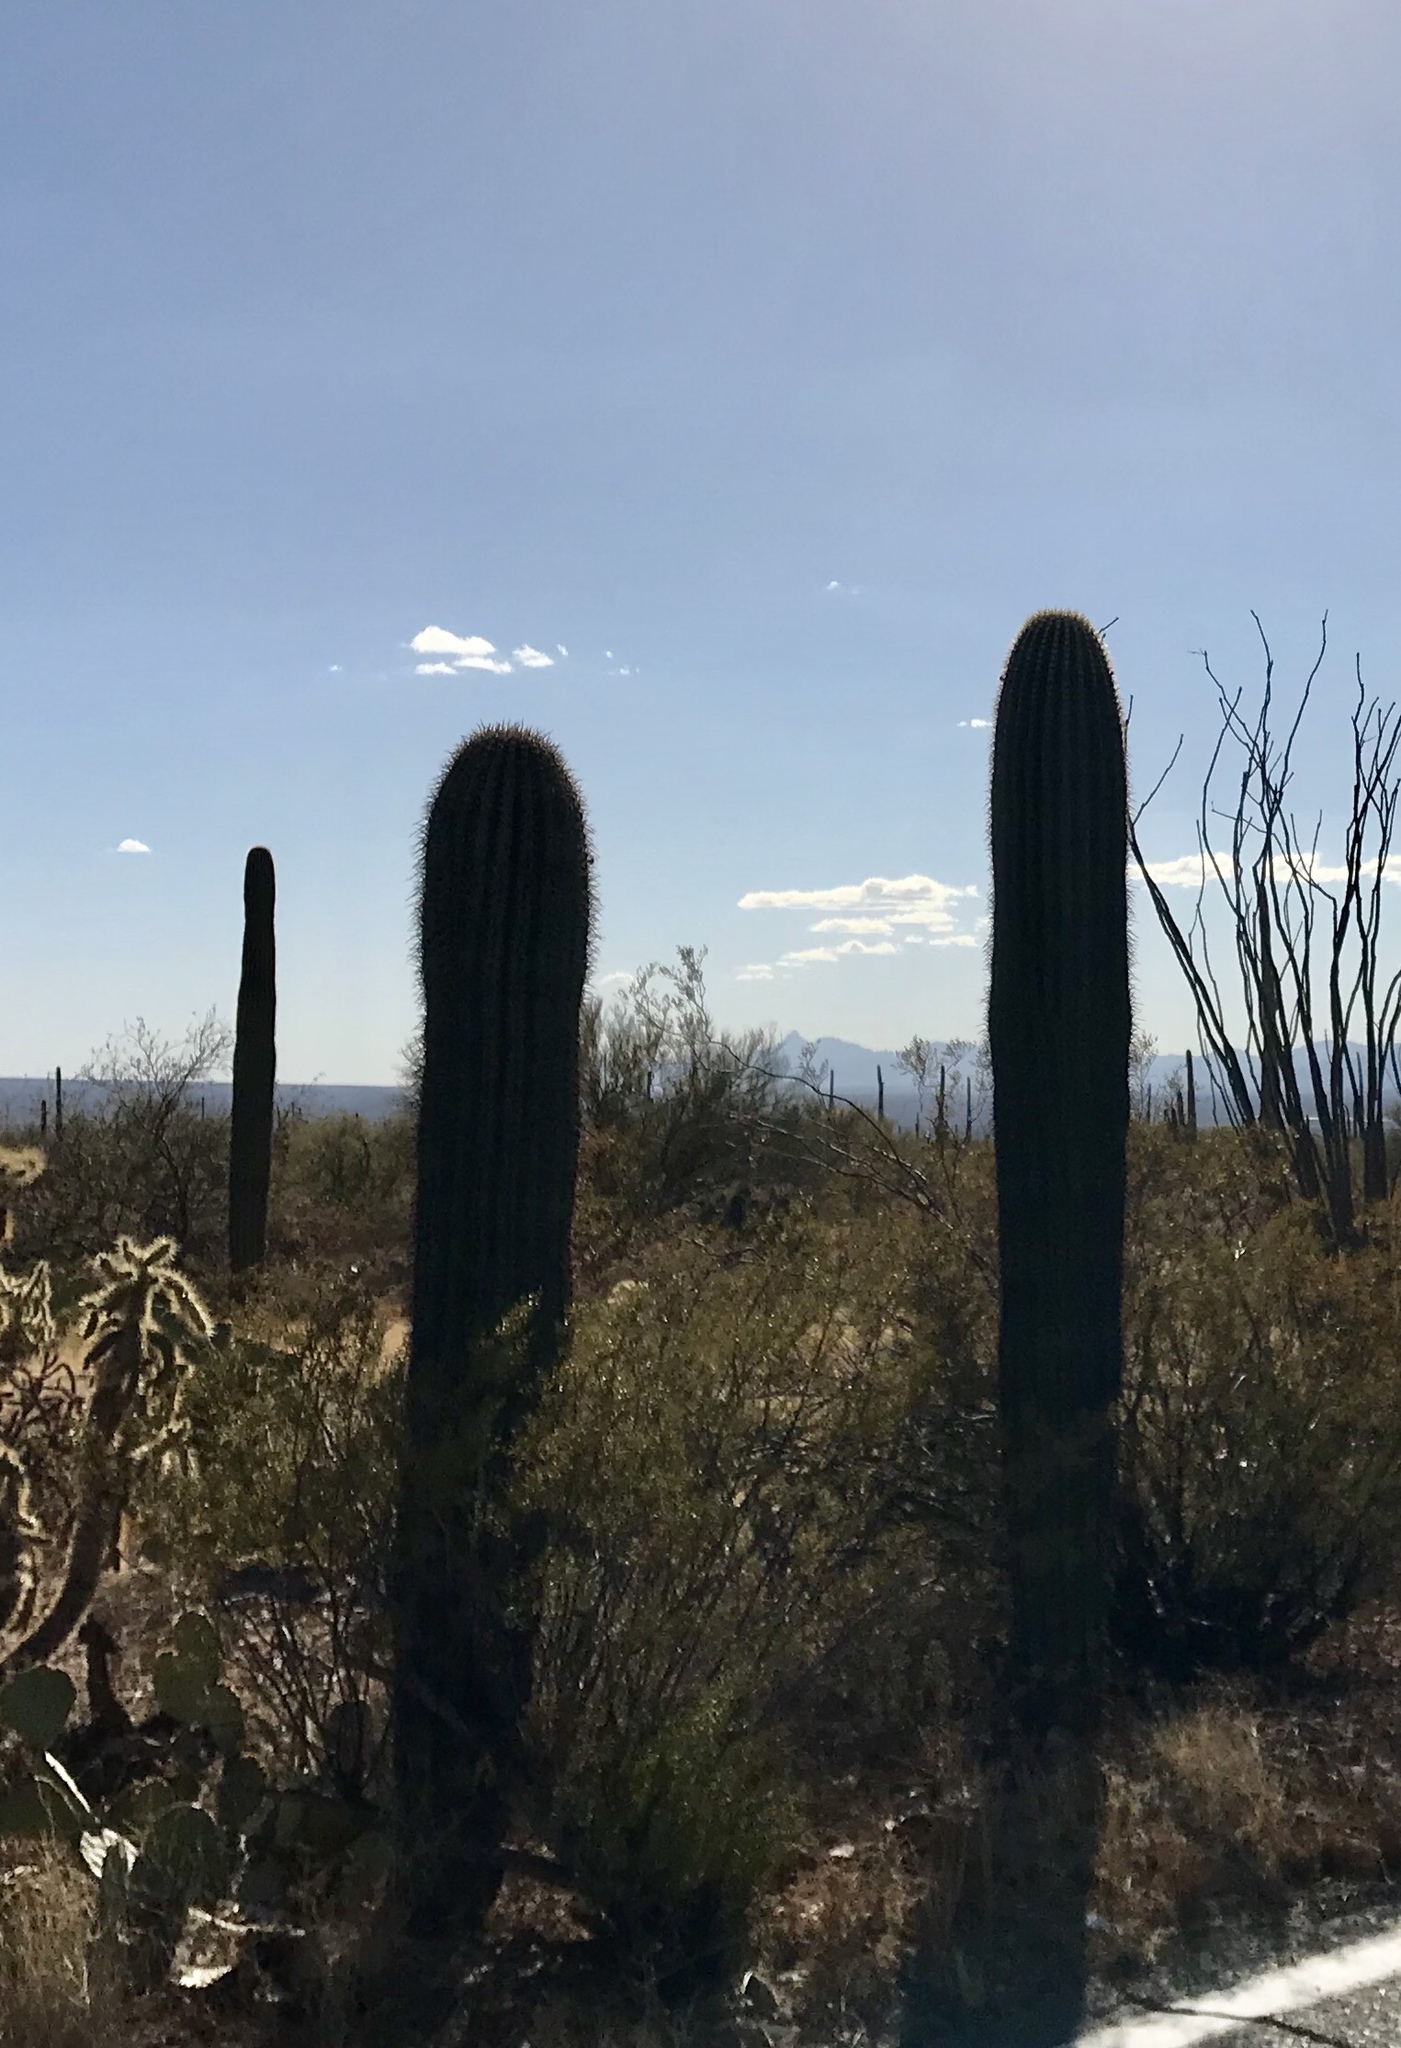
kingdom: Plantae
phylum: Tracheophyta
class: Magnoliopsida
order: Caryophyllales
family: Cactaceae
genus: Carnegiea
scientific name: Carnegiea gigantea
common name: Saguaro
